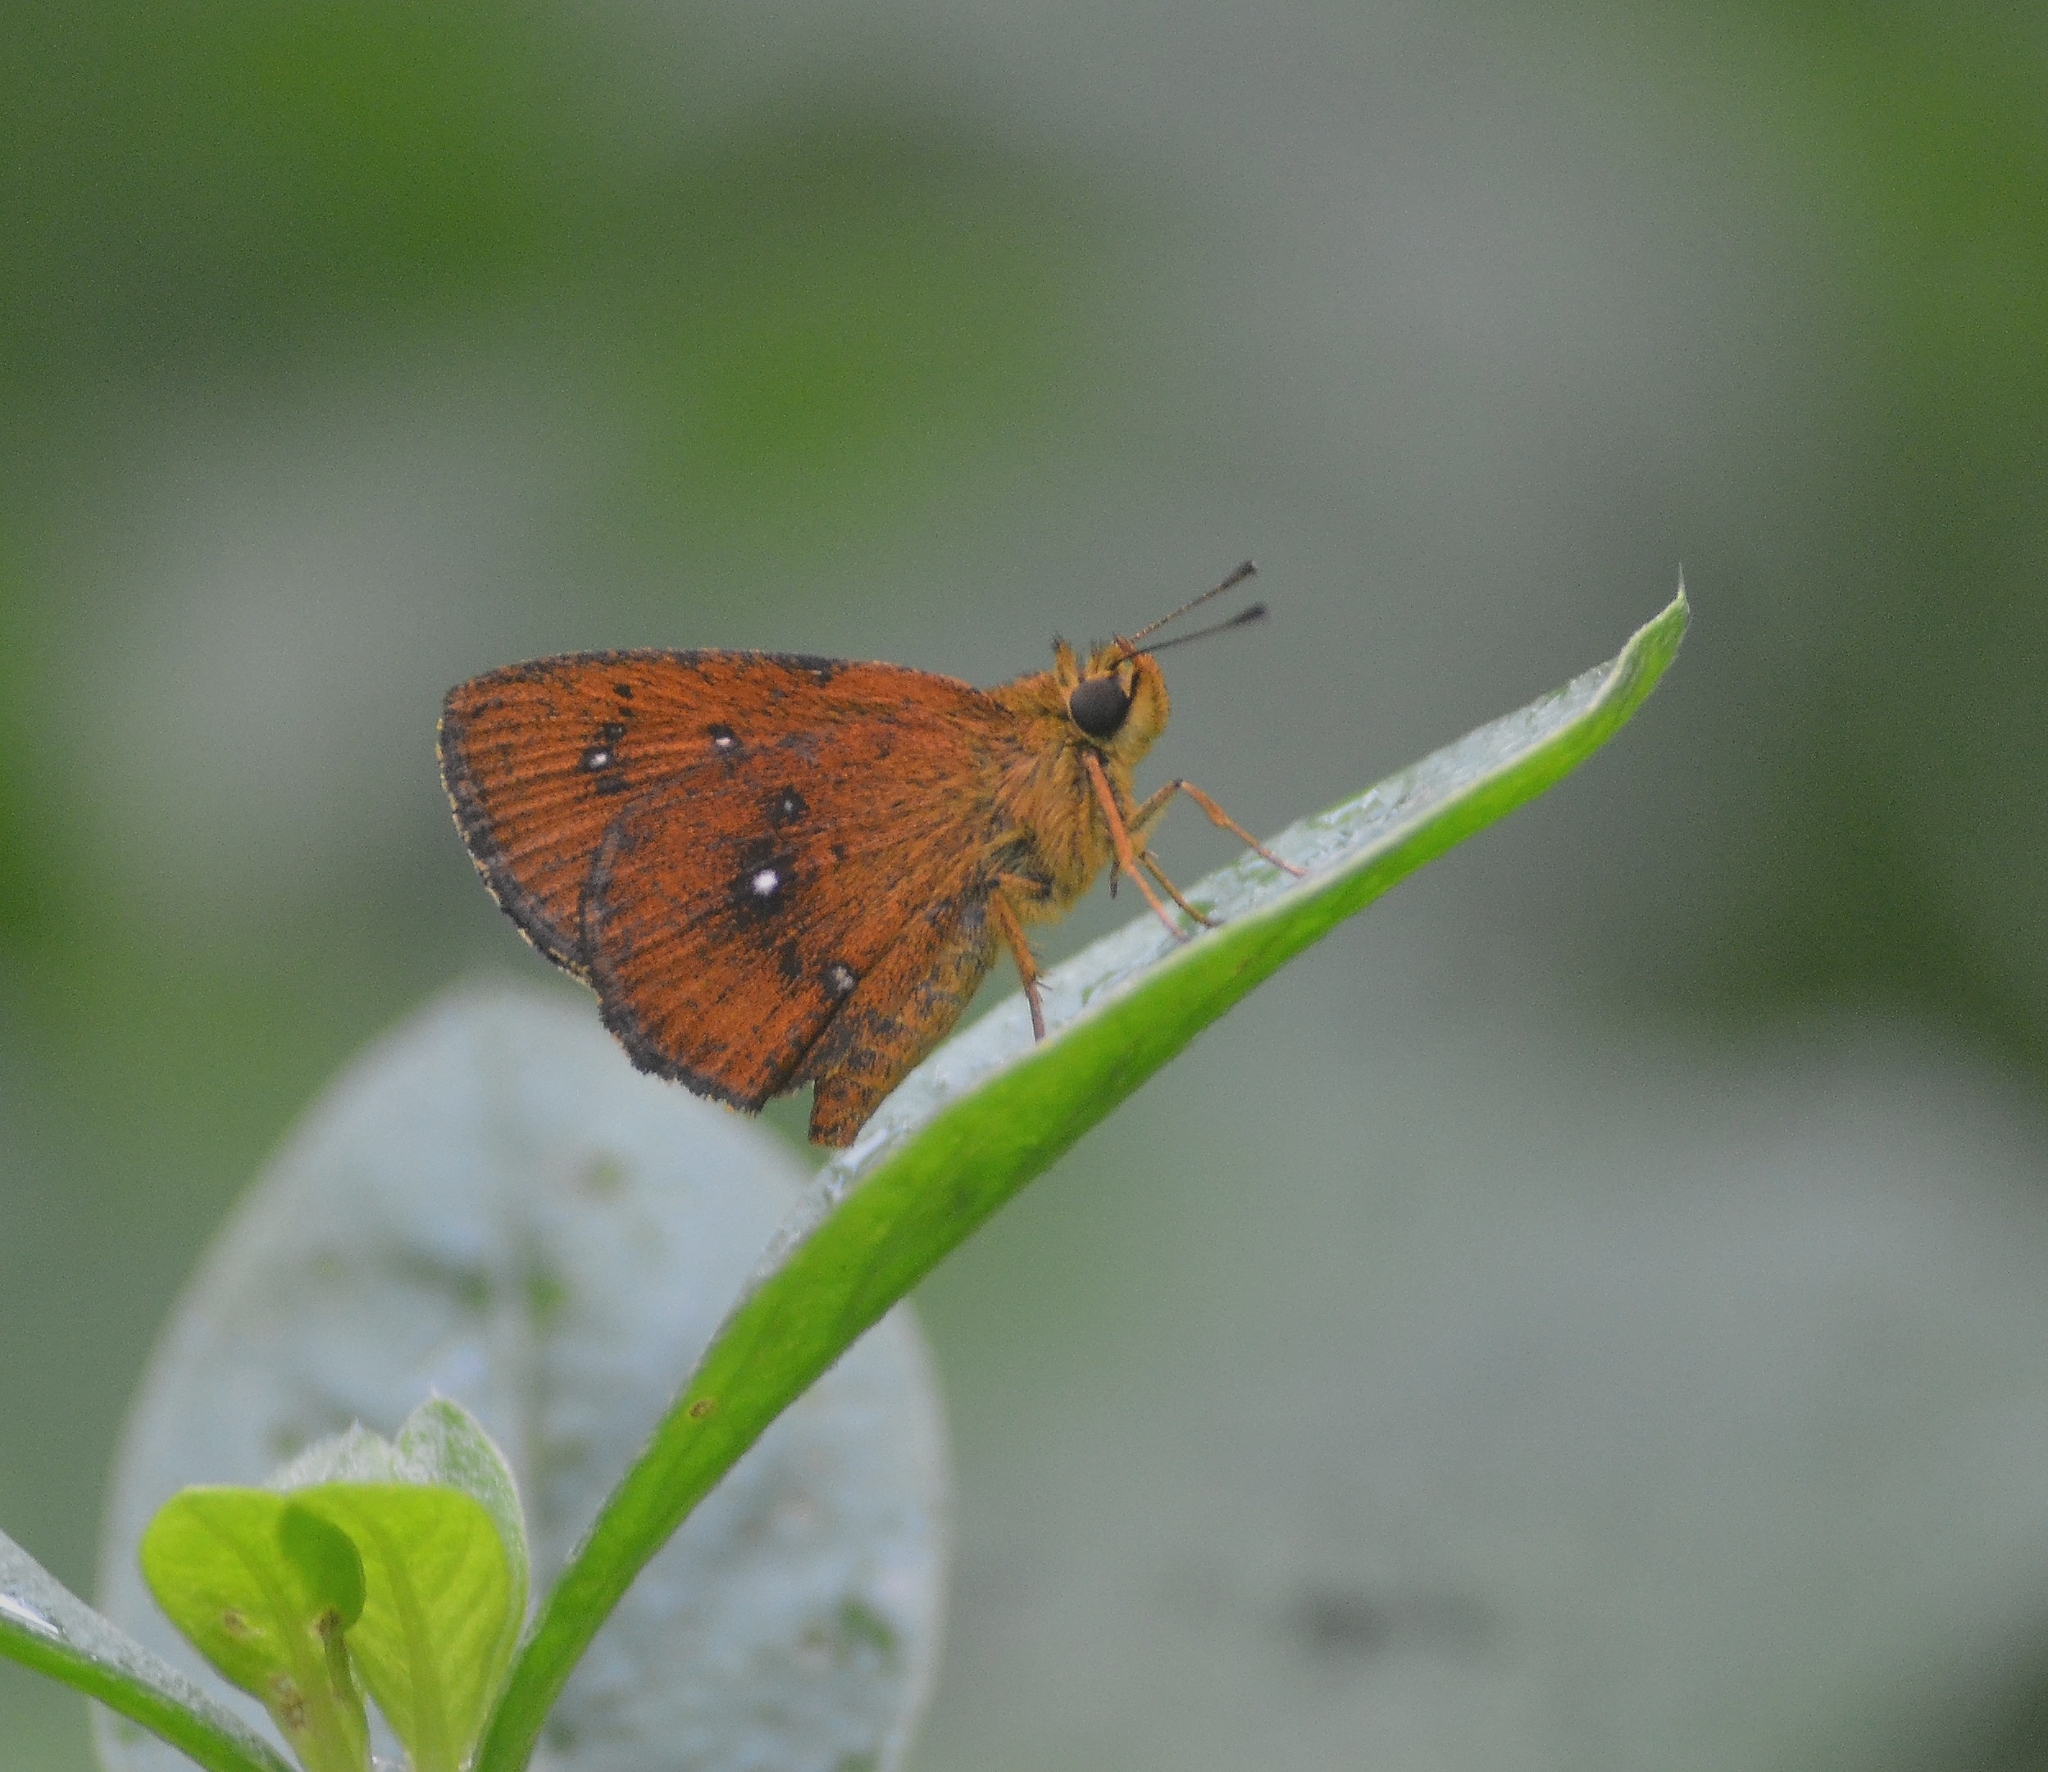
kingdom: Animalia
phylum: Arthropoda
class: Insecta
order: Lepidoptera
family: Hesperiidae
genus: Iambrix
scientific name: Iambrix salsala
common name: Chestnut bob
